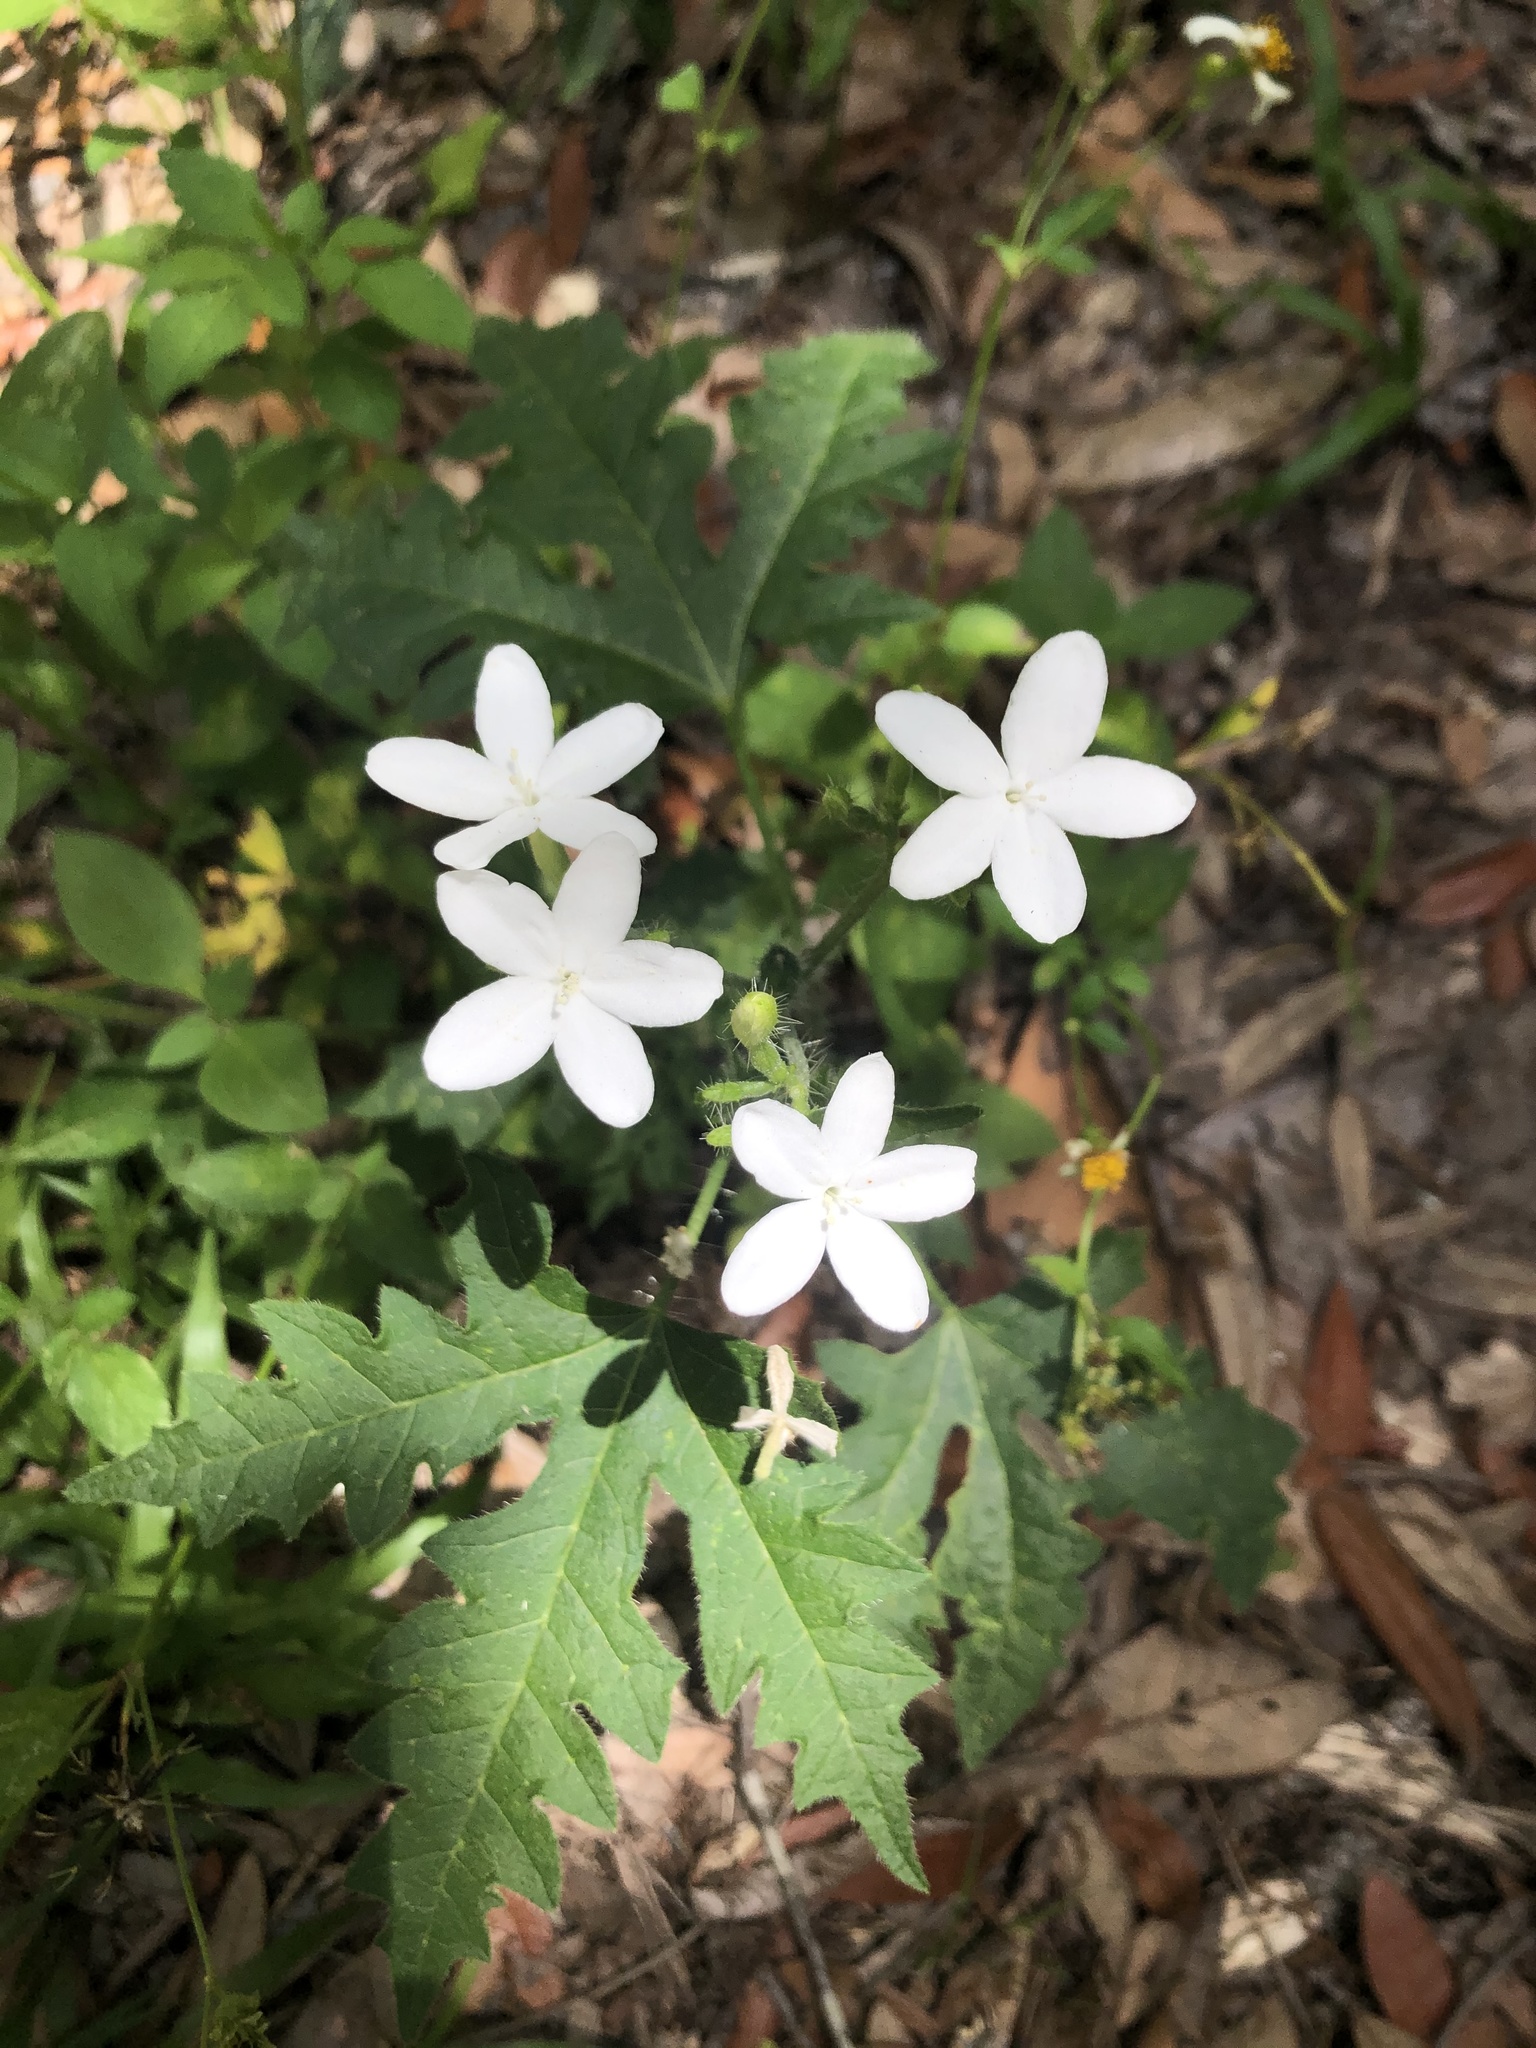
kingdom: Plantae
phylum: Tracheophyta
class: Magnoliopsida
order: Malpighiales
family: Euphorbiaceae
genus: Cnidoscolus
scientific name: Cnidoscolus stimulosus
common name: Bull-nettle
